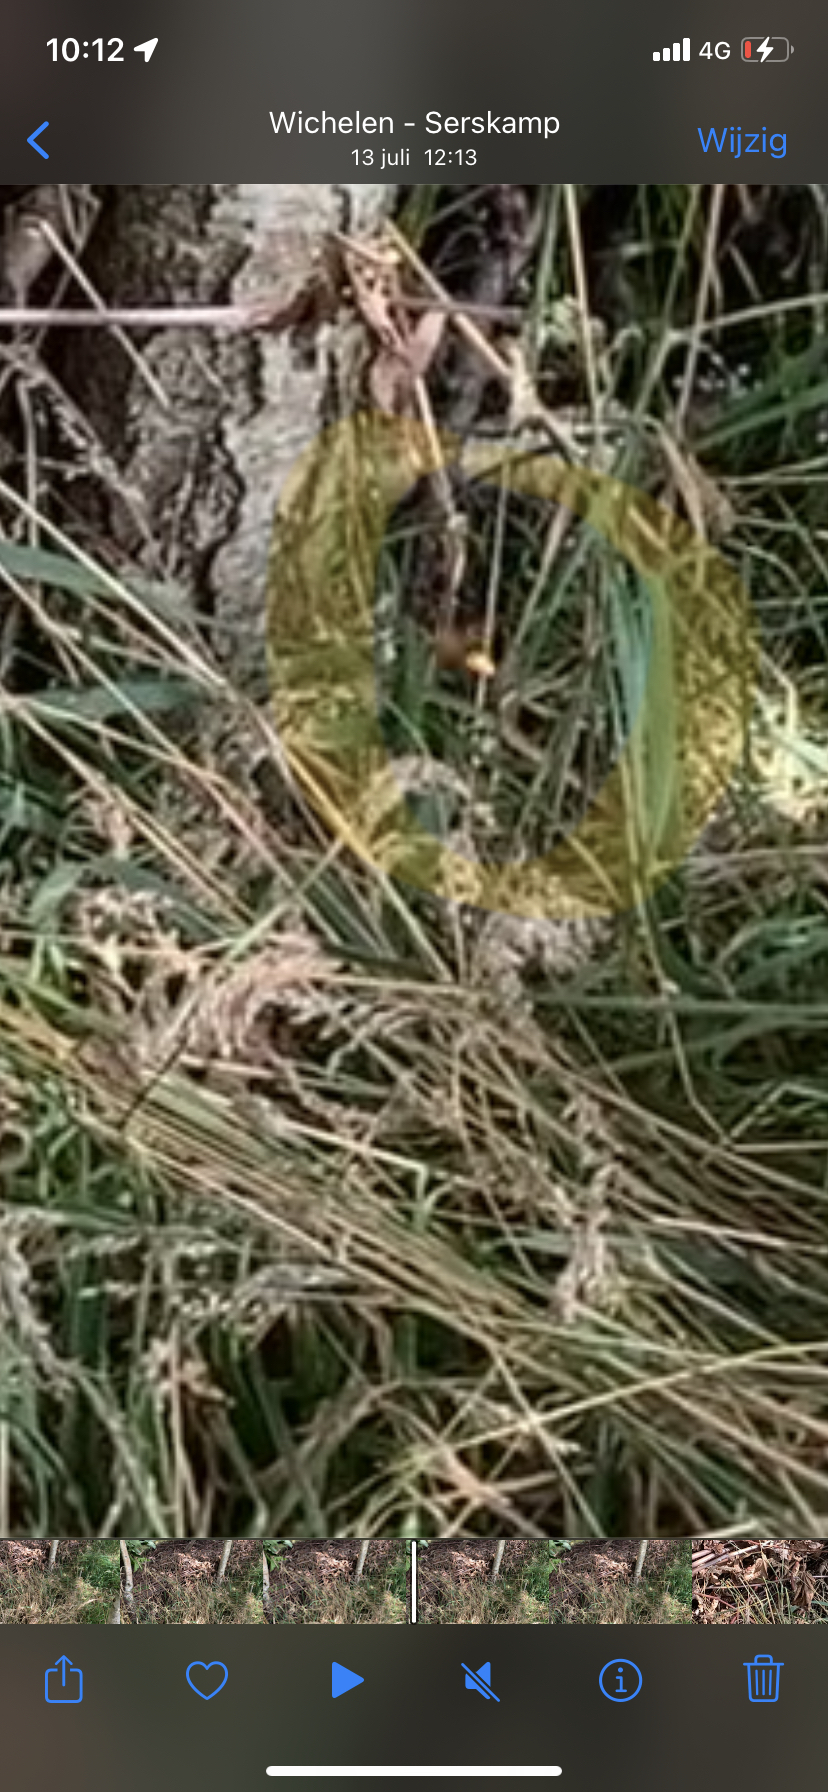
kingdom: Animalia
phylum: Arthropoda
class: Insecta
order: Hymenoptera
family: Vespidae
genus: Vespa
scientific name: Vespa crabro
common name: Hornet
